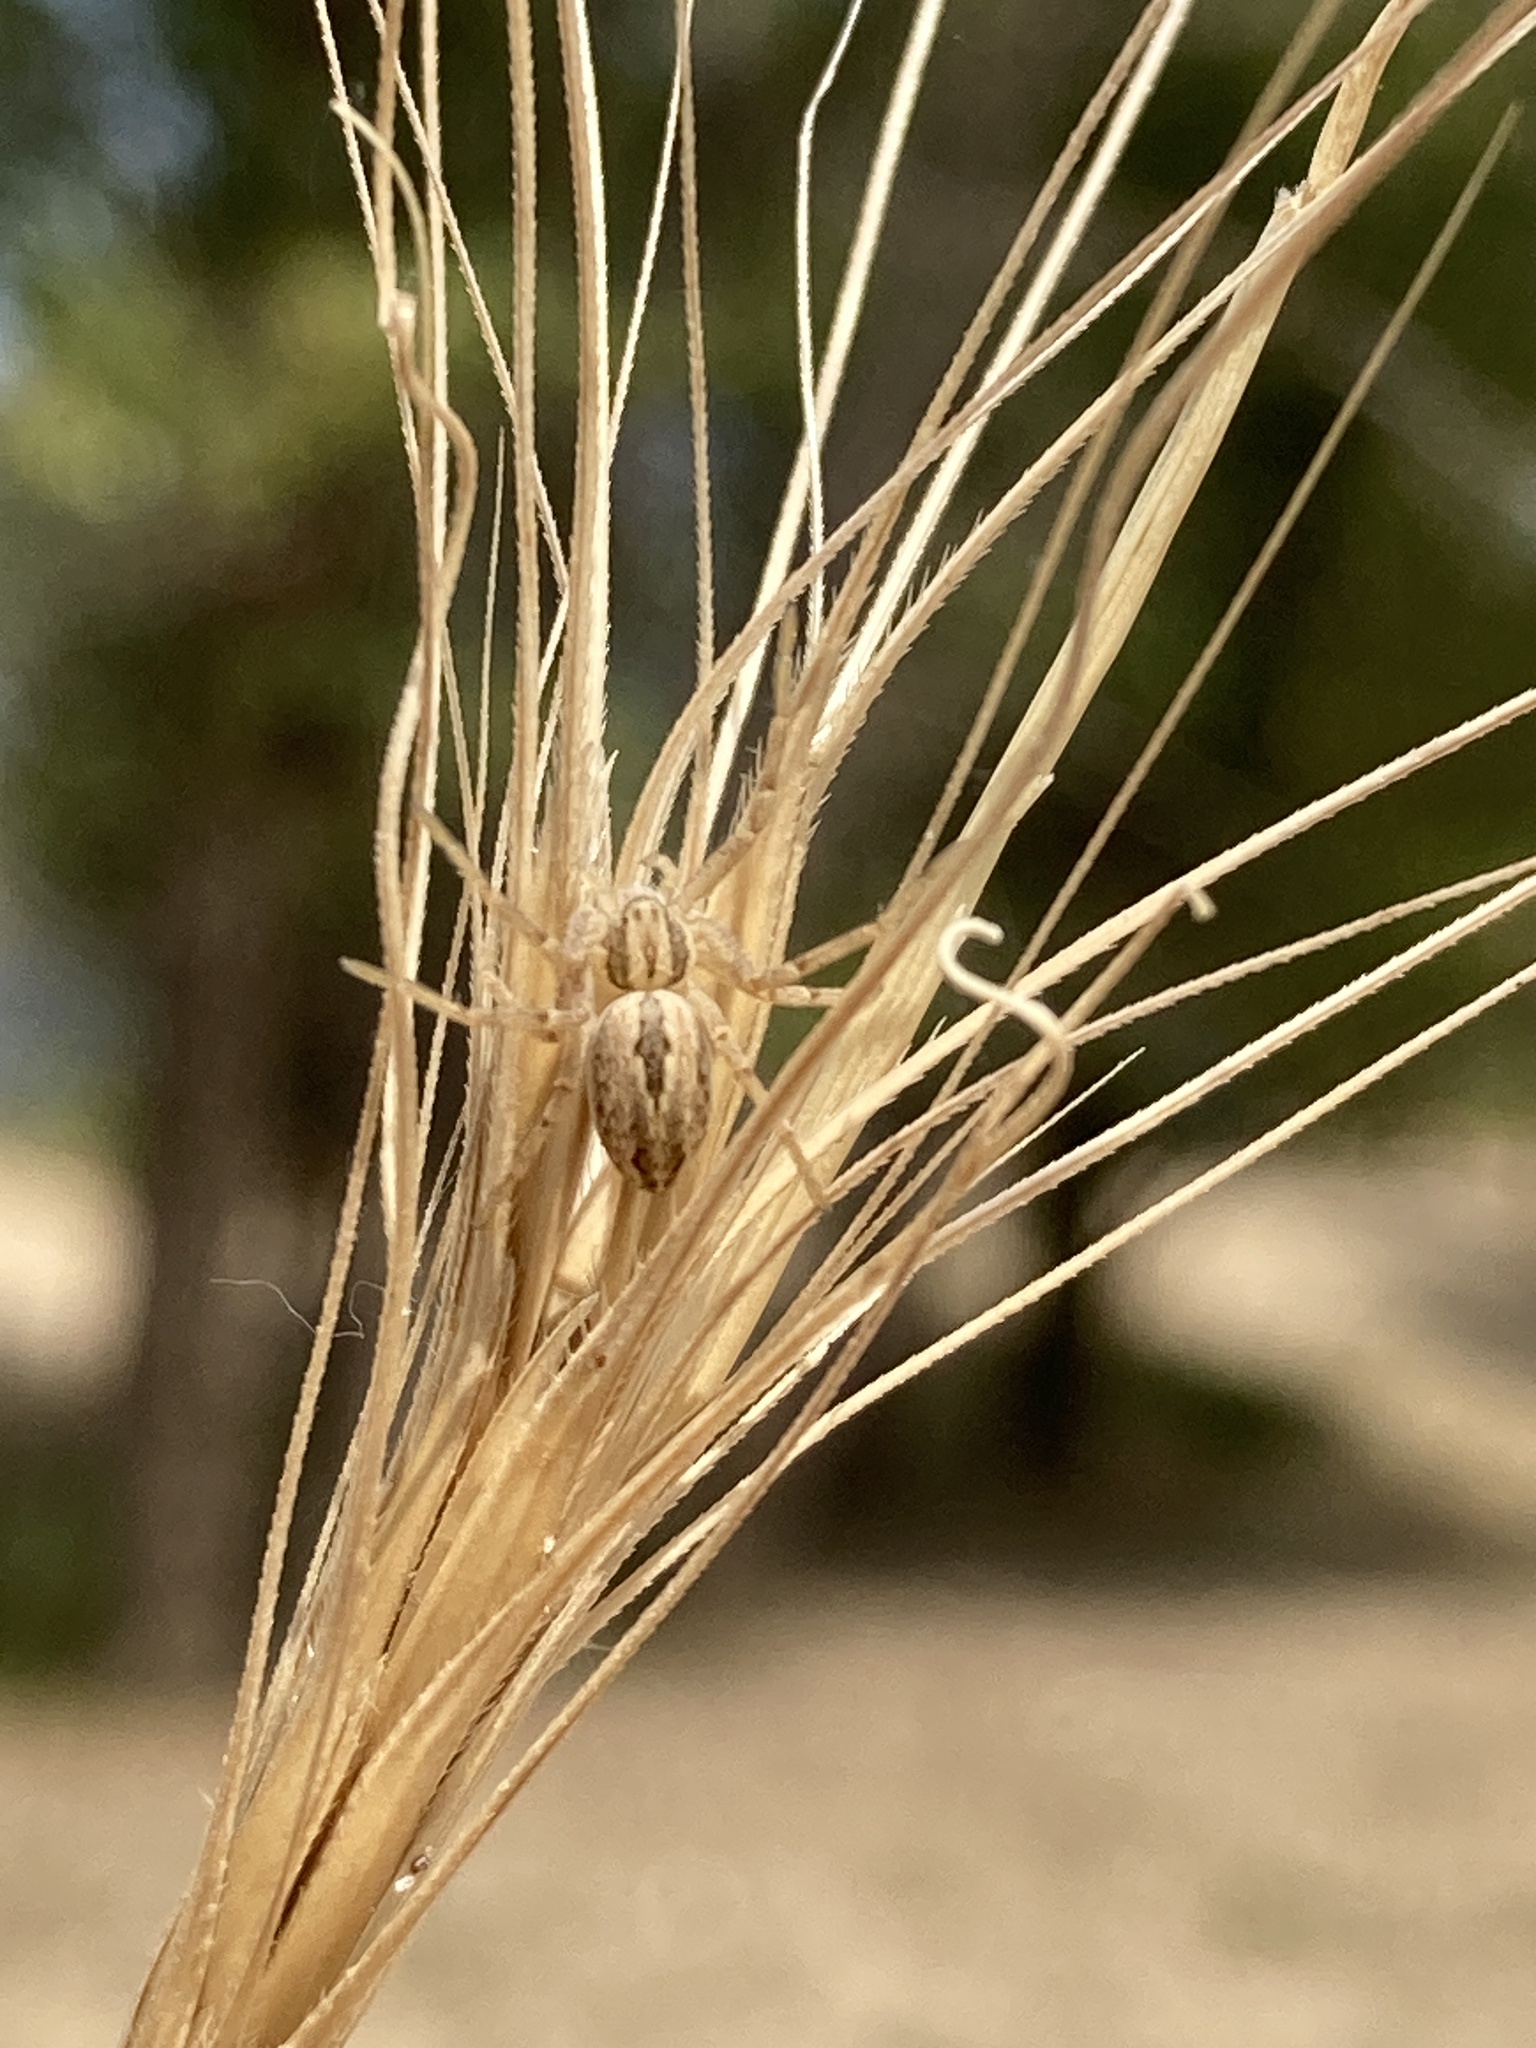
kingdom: Animalia
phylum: Arthropoda
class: Arachnida
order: Araneae
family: Oxyopidae
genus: Oxyopes
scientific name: Oxyopes lineatus
